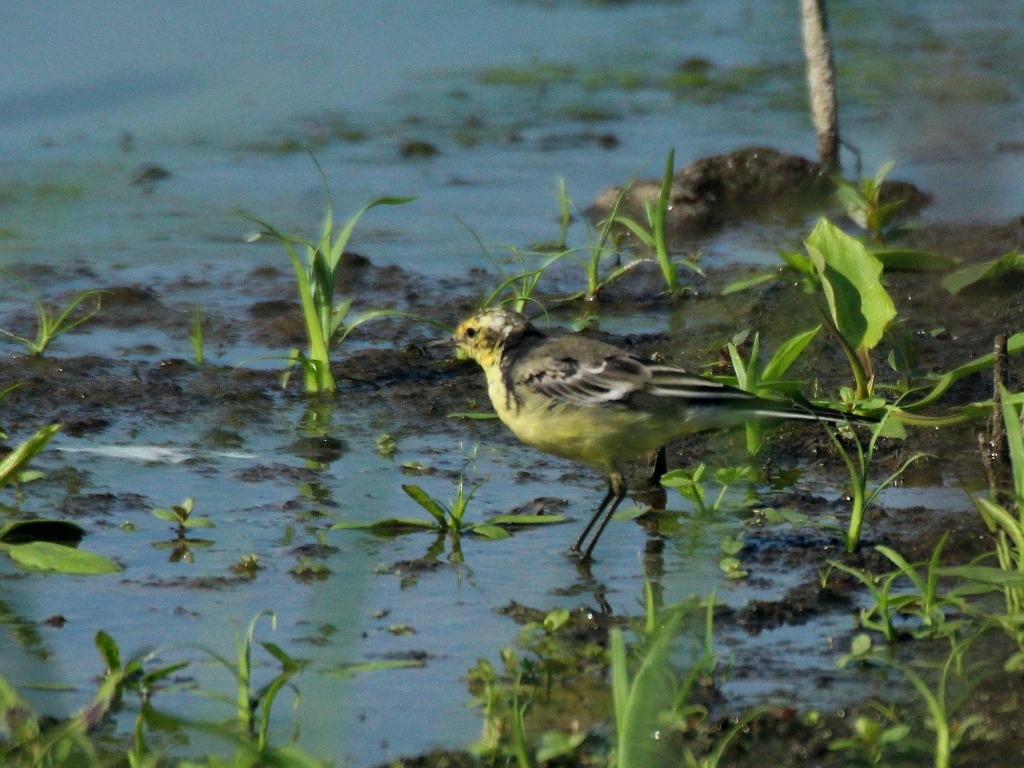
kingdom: Animalia
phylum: Chordata
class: Aves
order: Passeriformes
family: Motacillidae
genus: Motacilla
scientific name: Motacilla citreola
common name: Citrine wagtail
